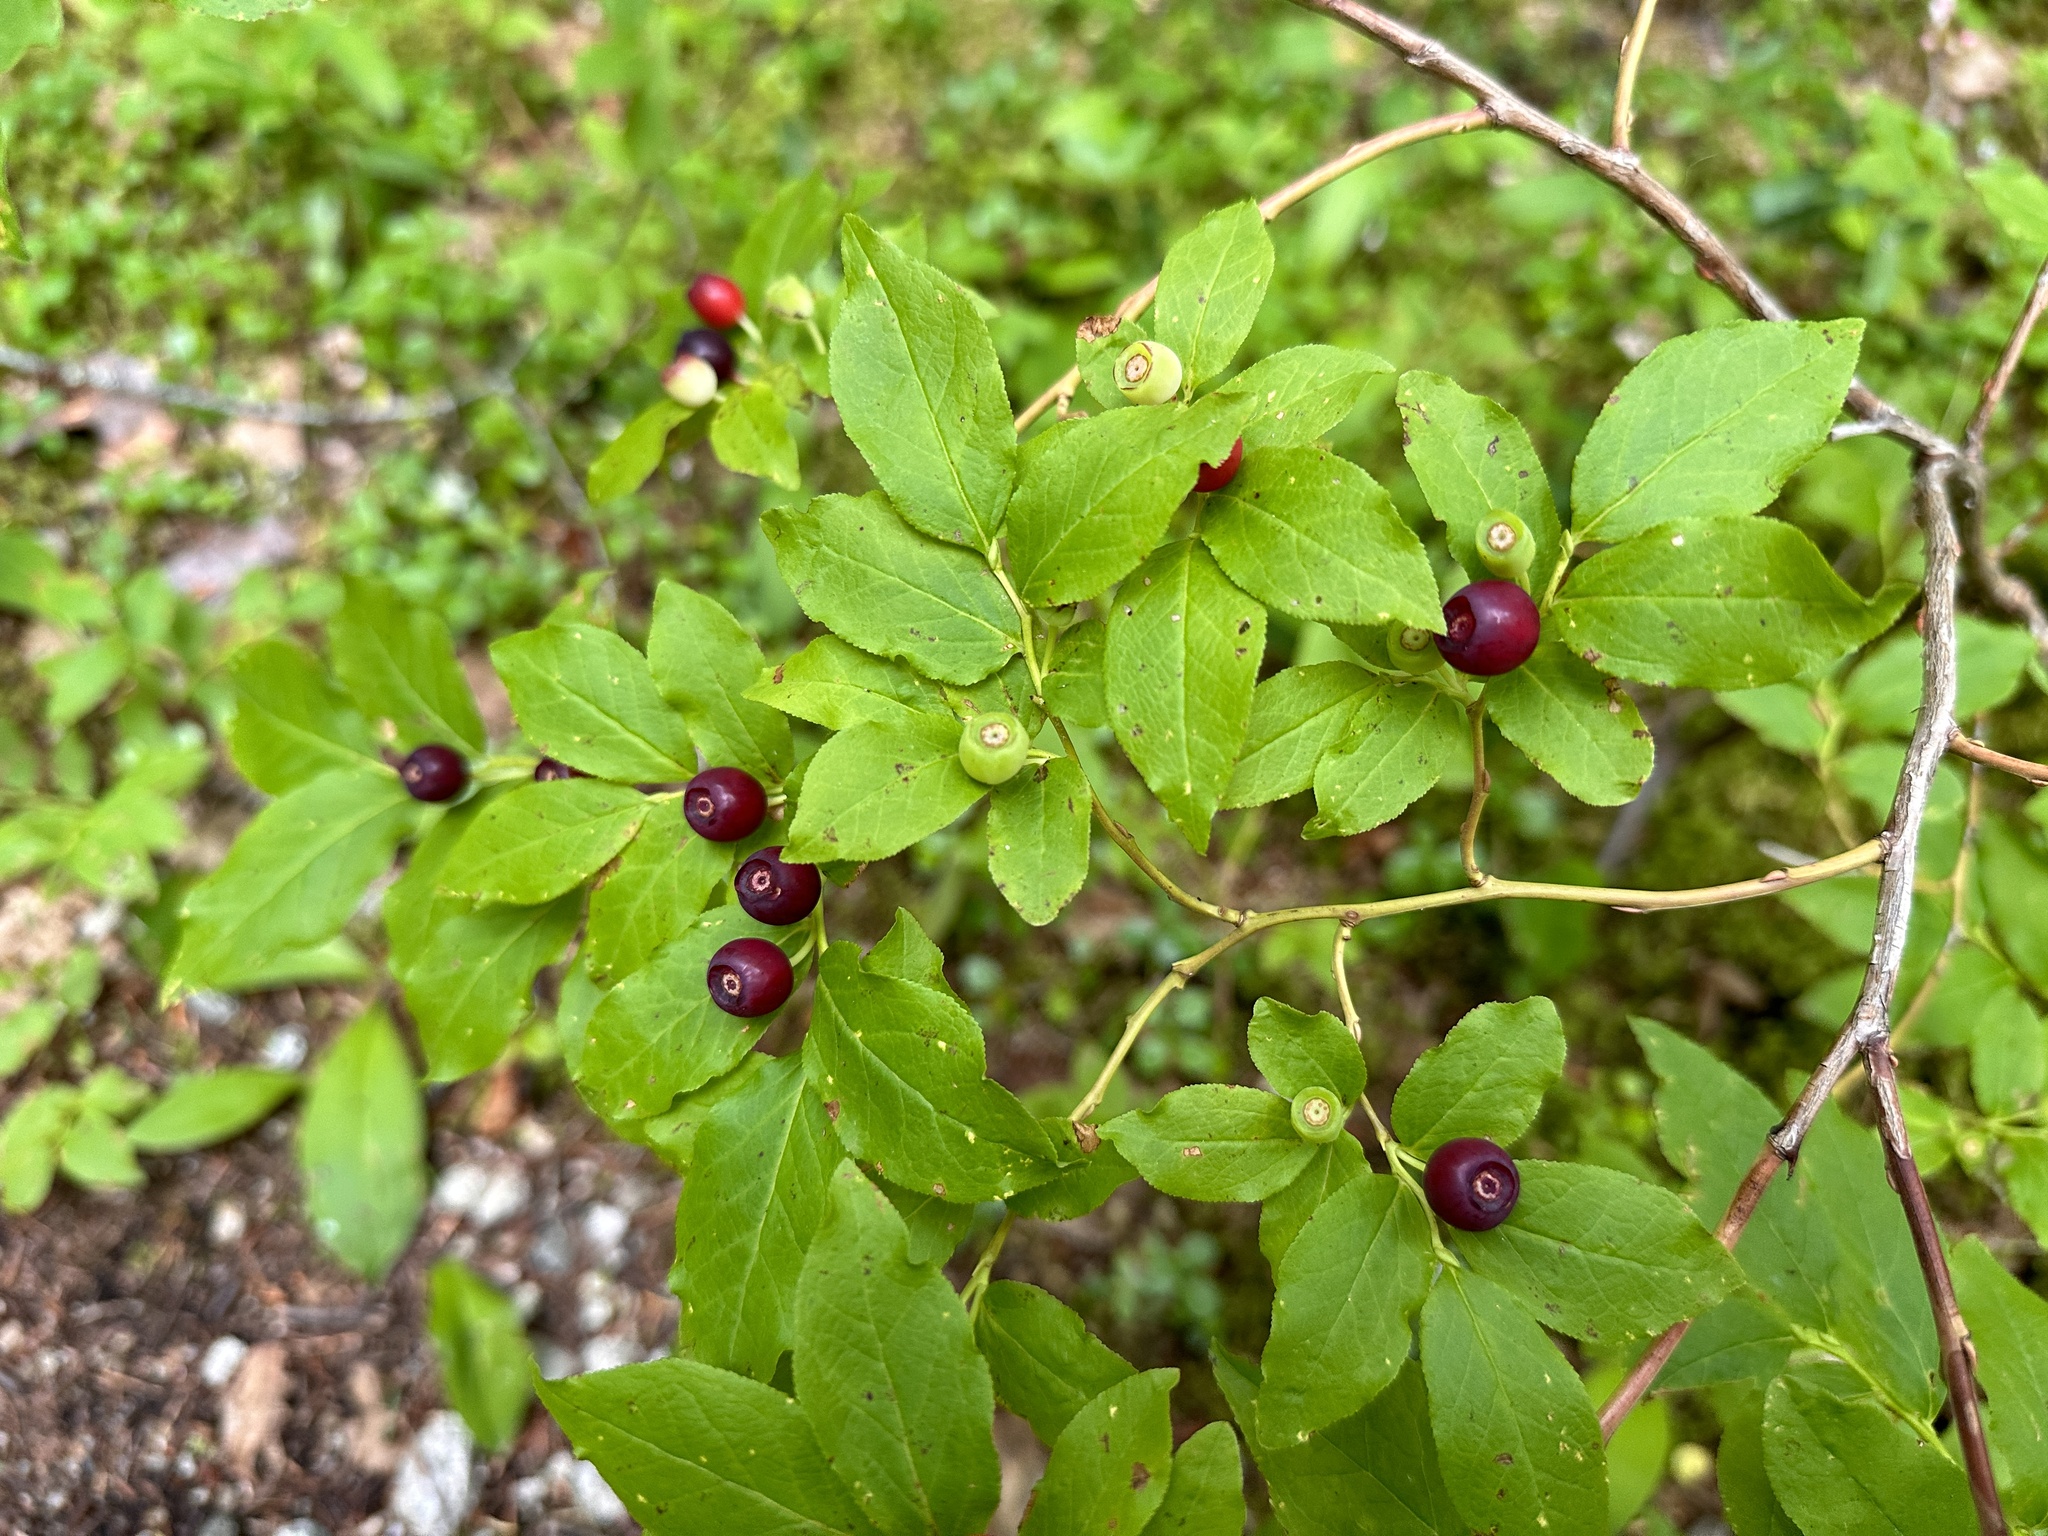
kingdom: Plantae
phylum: Tracheophyta
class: Magnoliopsida
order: Ericales
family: Ericaceae
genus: Vaccinium
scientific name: Vaccinium membranaceum
